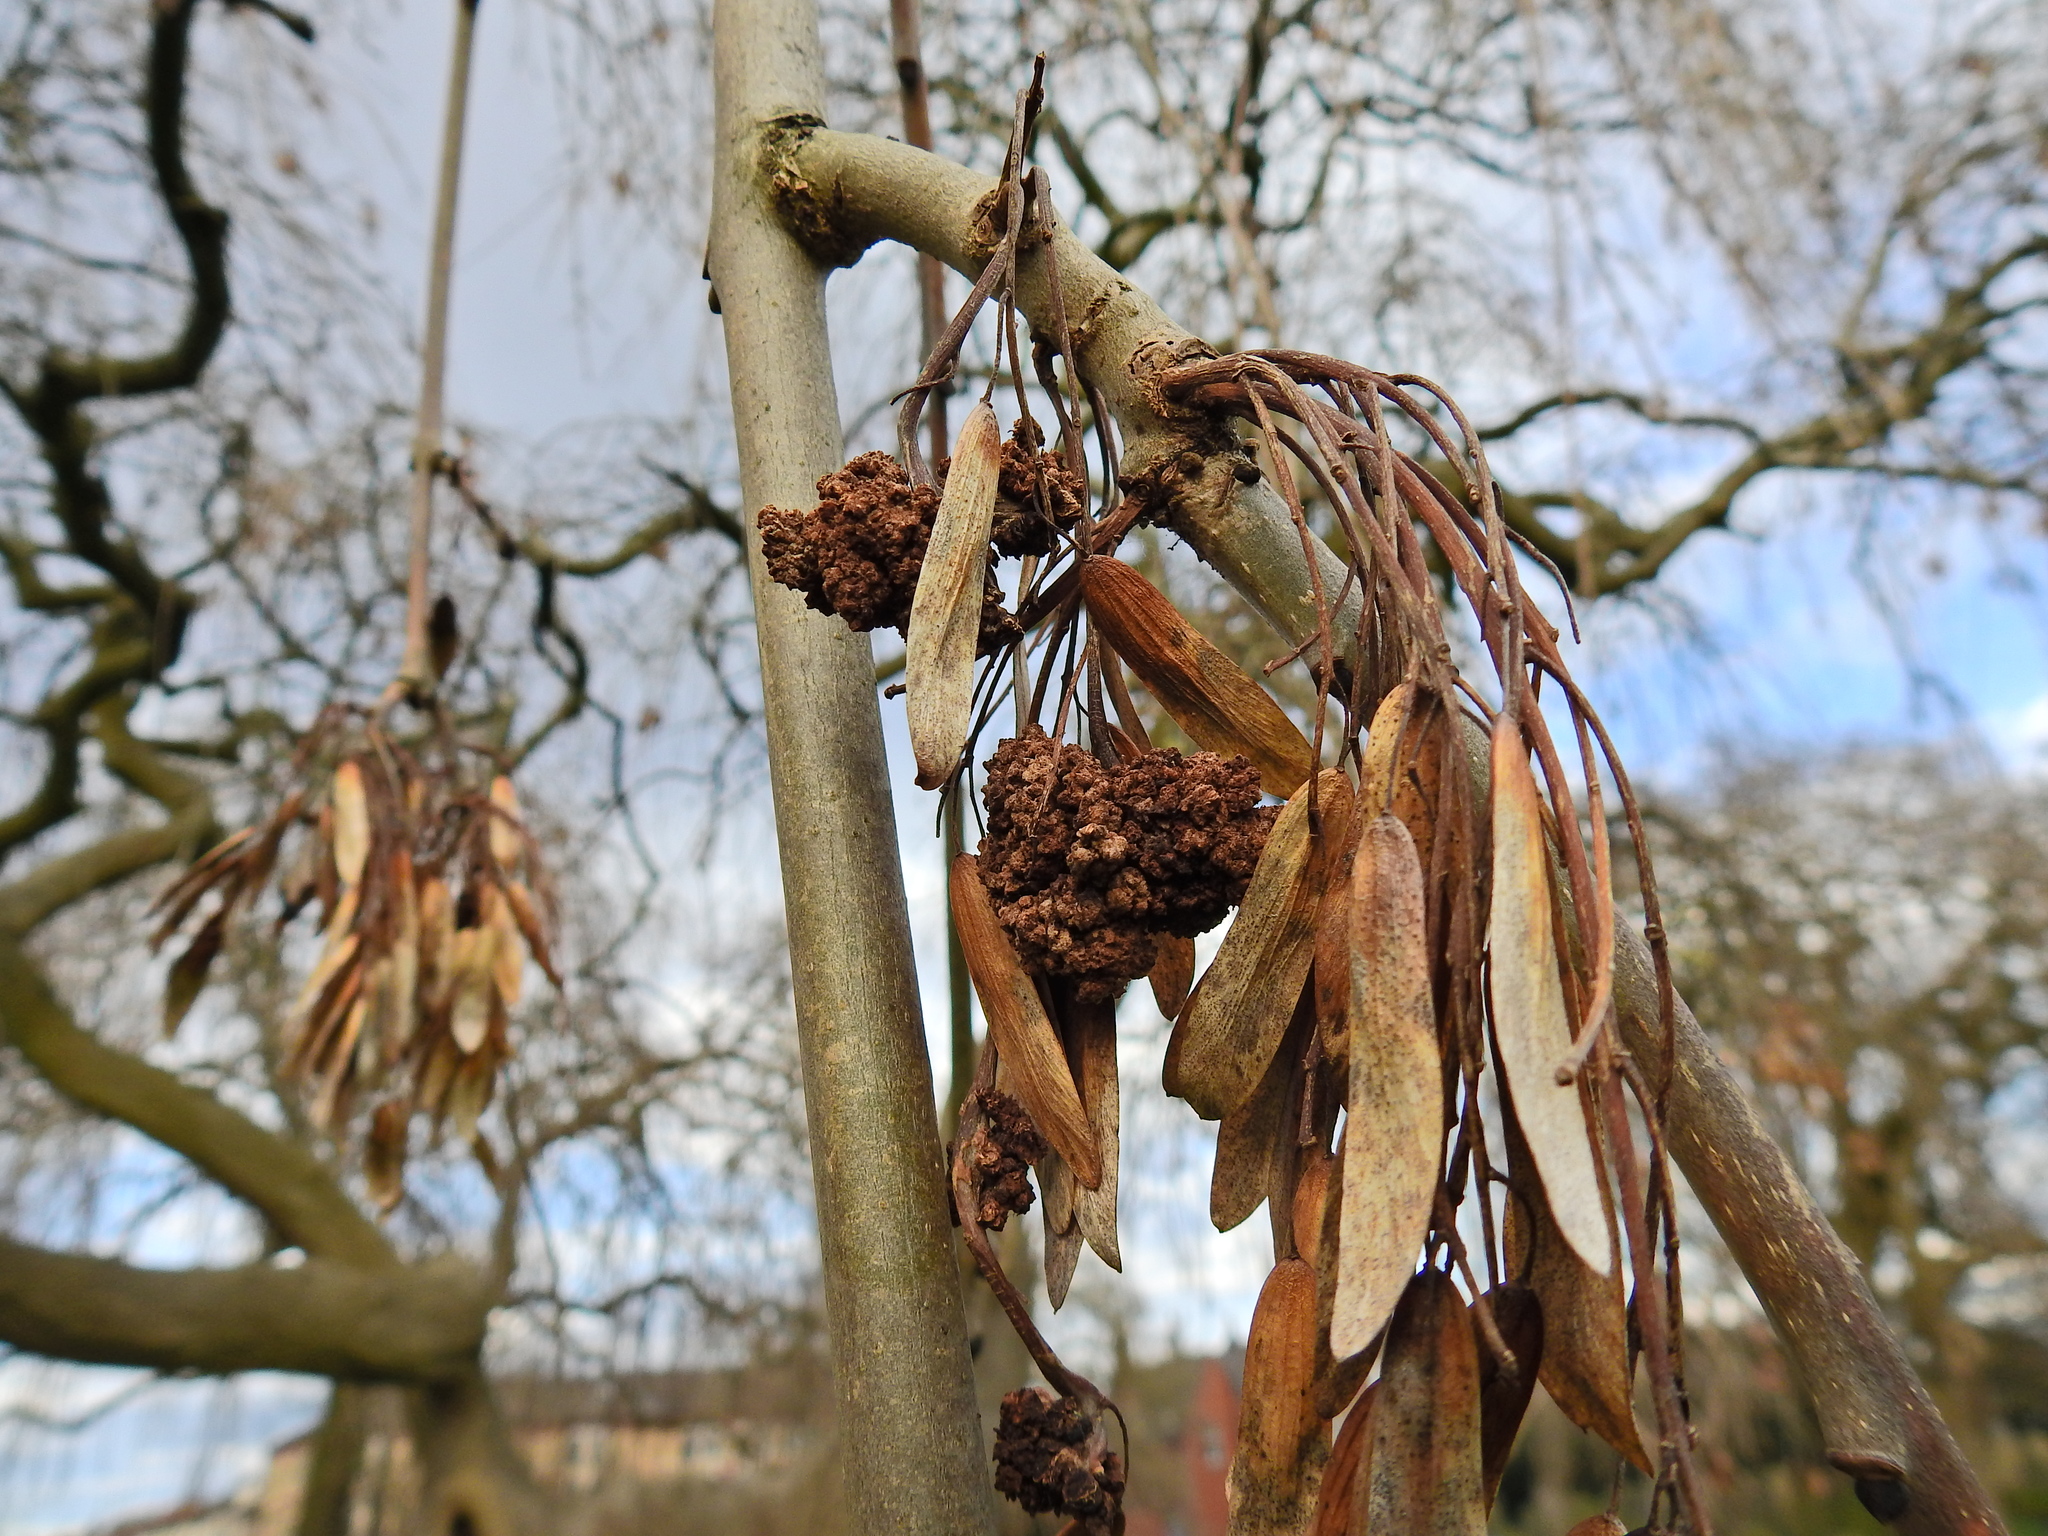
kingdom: Plantae
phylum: Tracheophyta
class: Magnoliopsida
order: Lamiales
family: Oleaceae
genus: Fraxinus
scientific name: Fraxinus excelsior
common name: European ash
